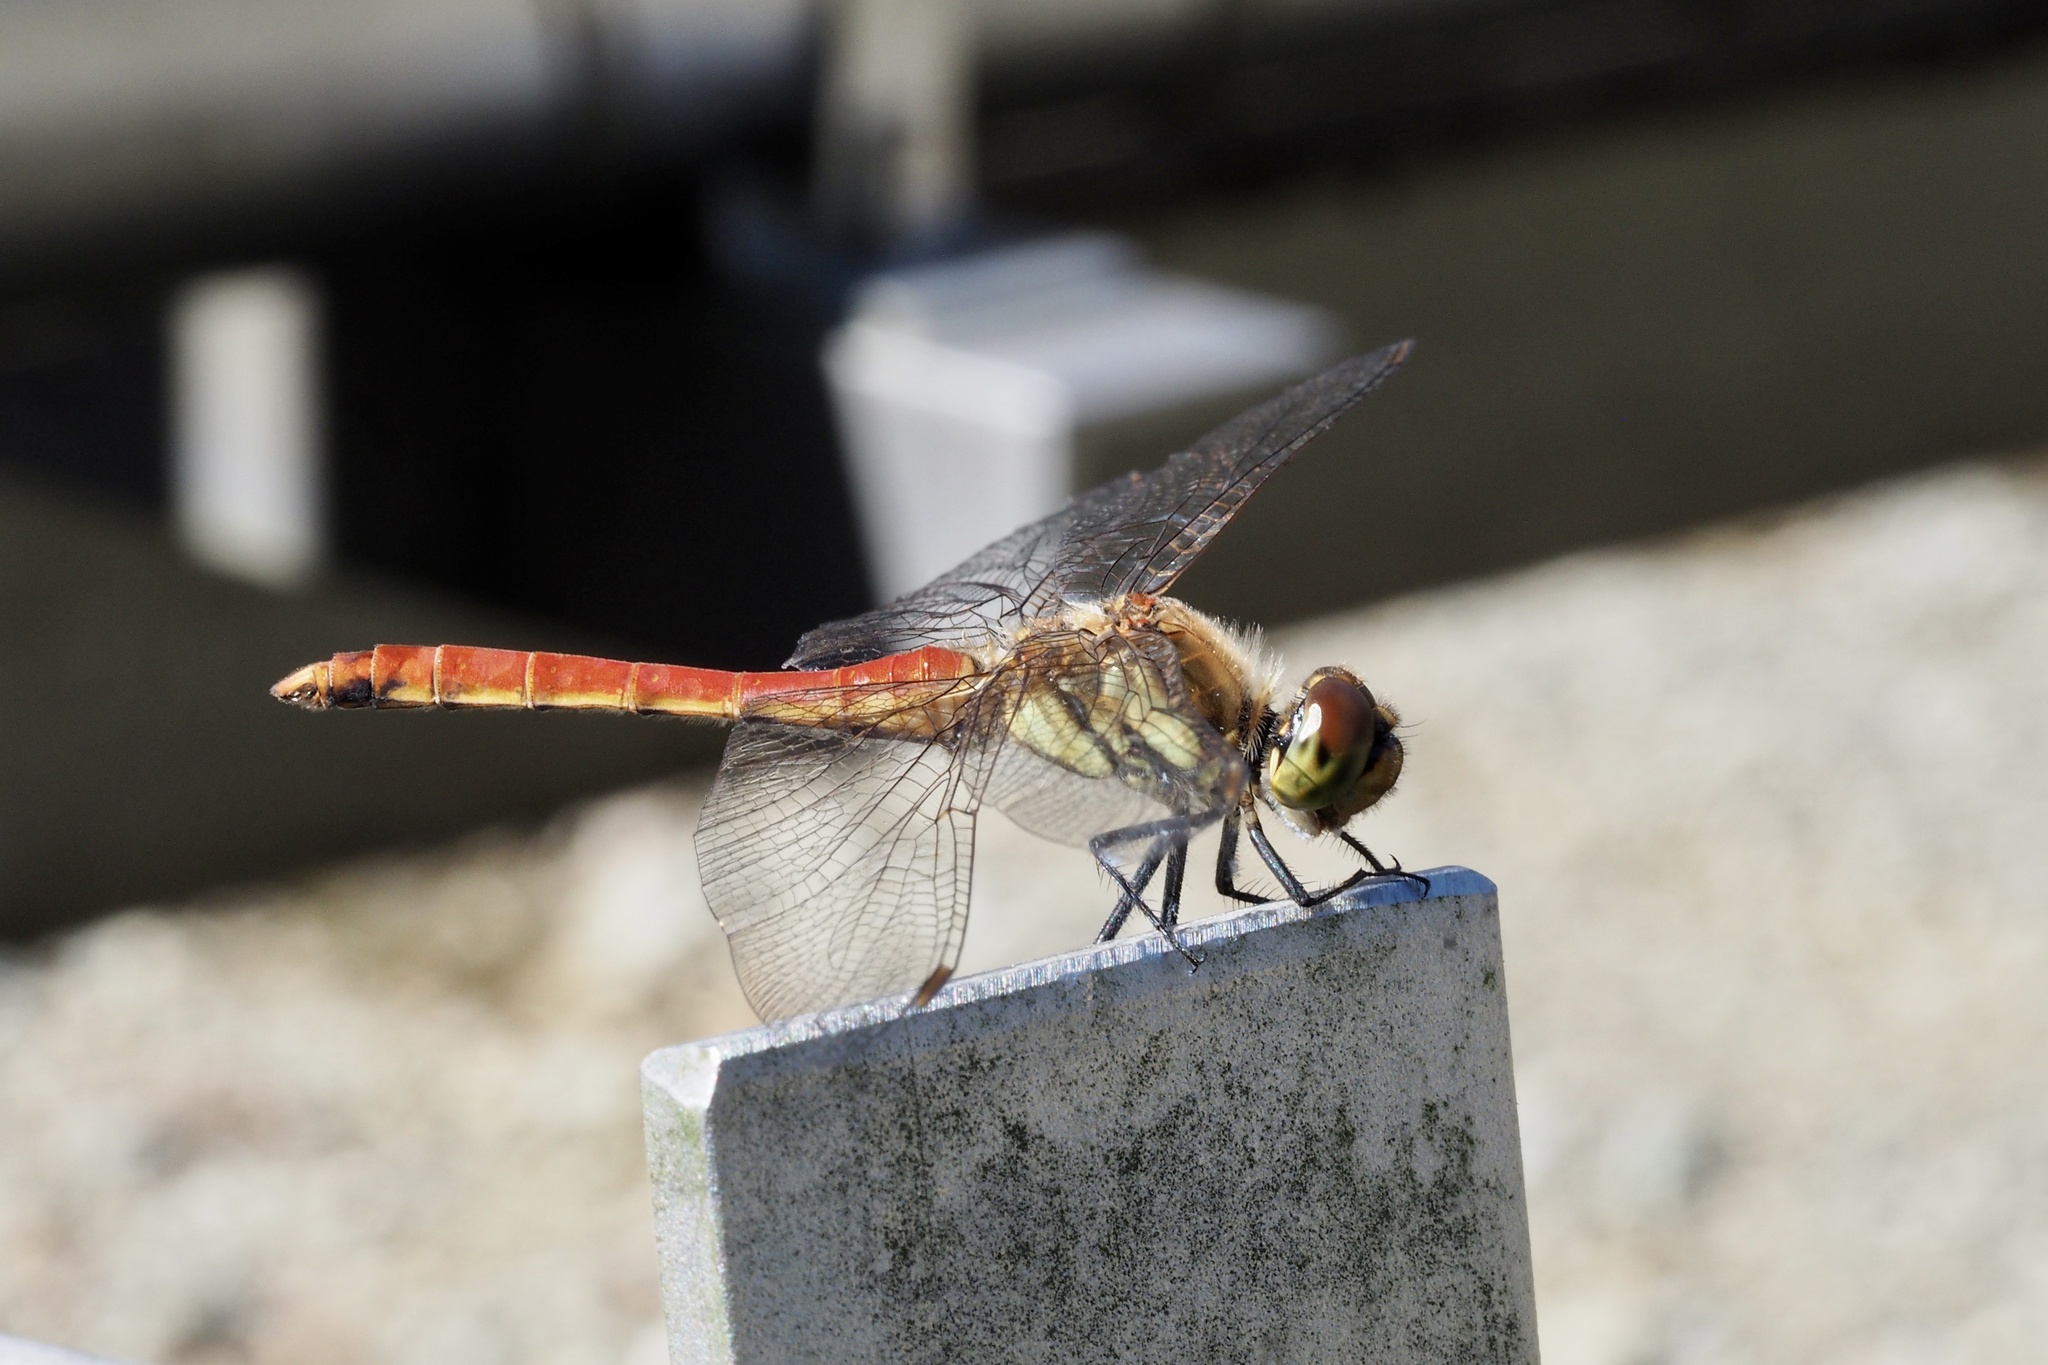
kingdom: Animalia
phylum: Arthropoda
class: Insecta
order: Odonata
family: Libellulidae
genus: Sympetrum
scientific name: Sympetrum frequens
